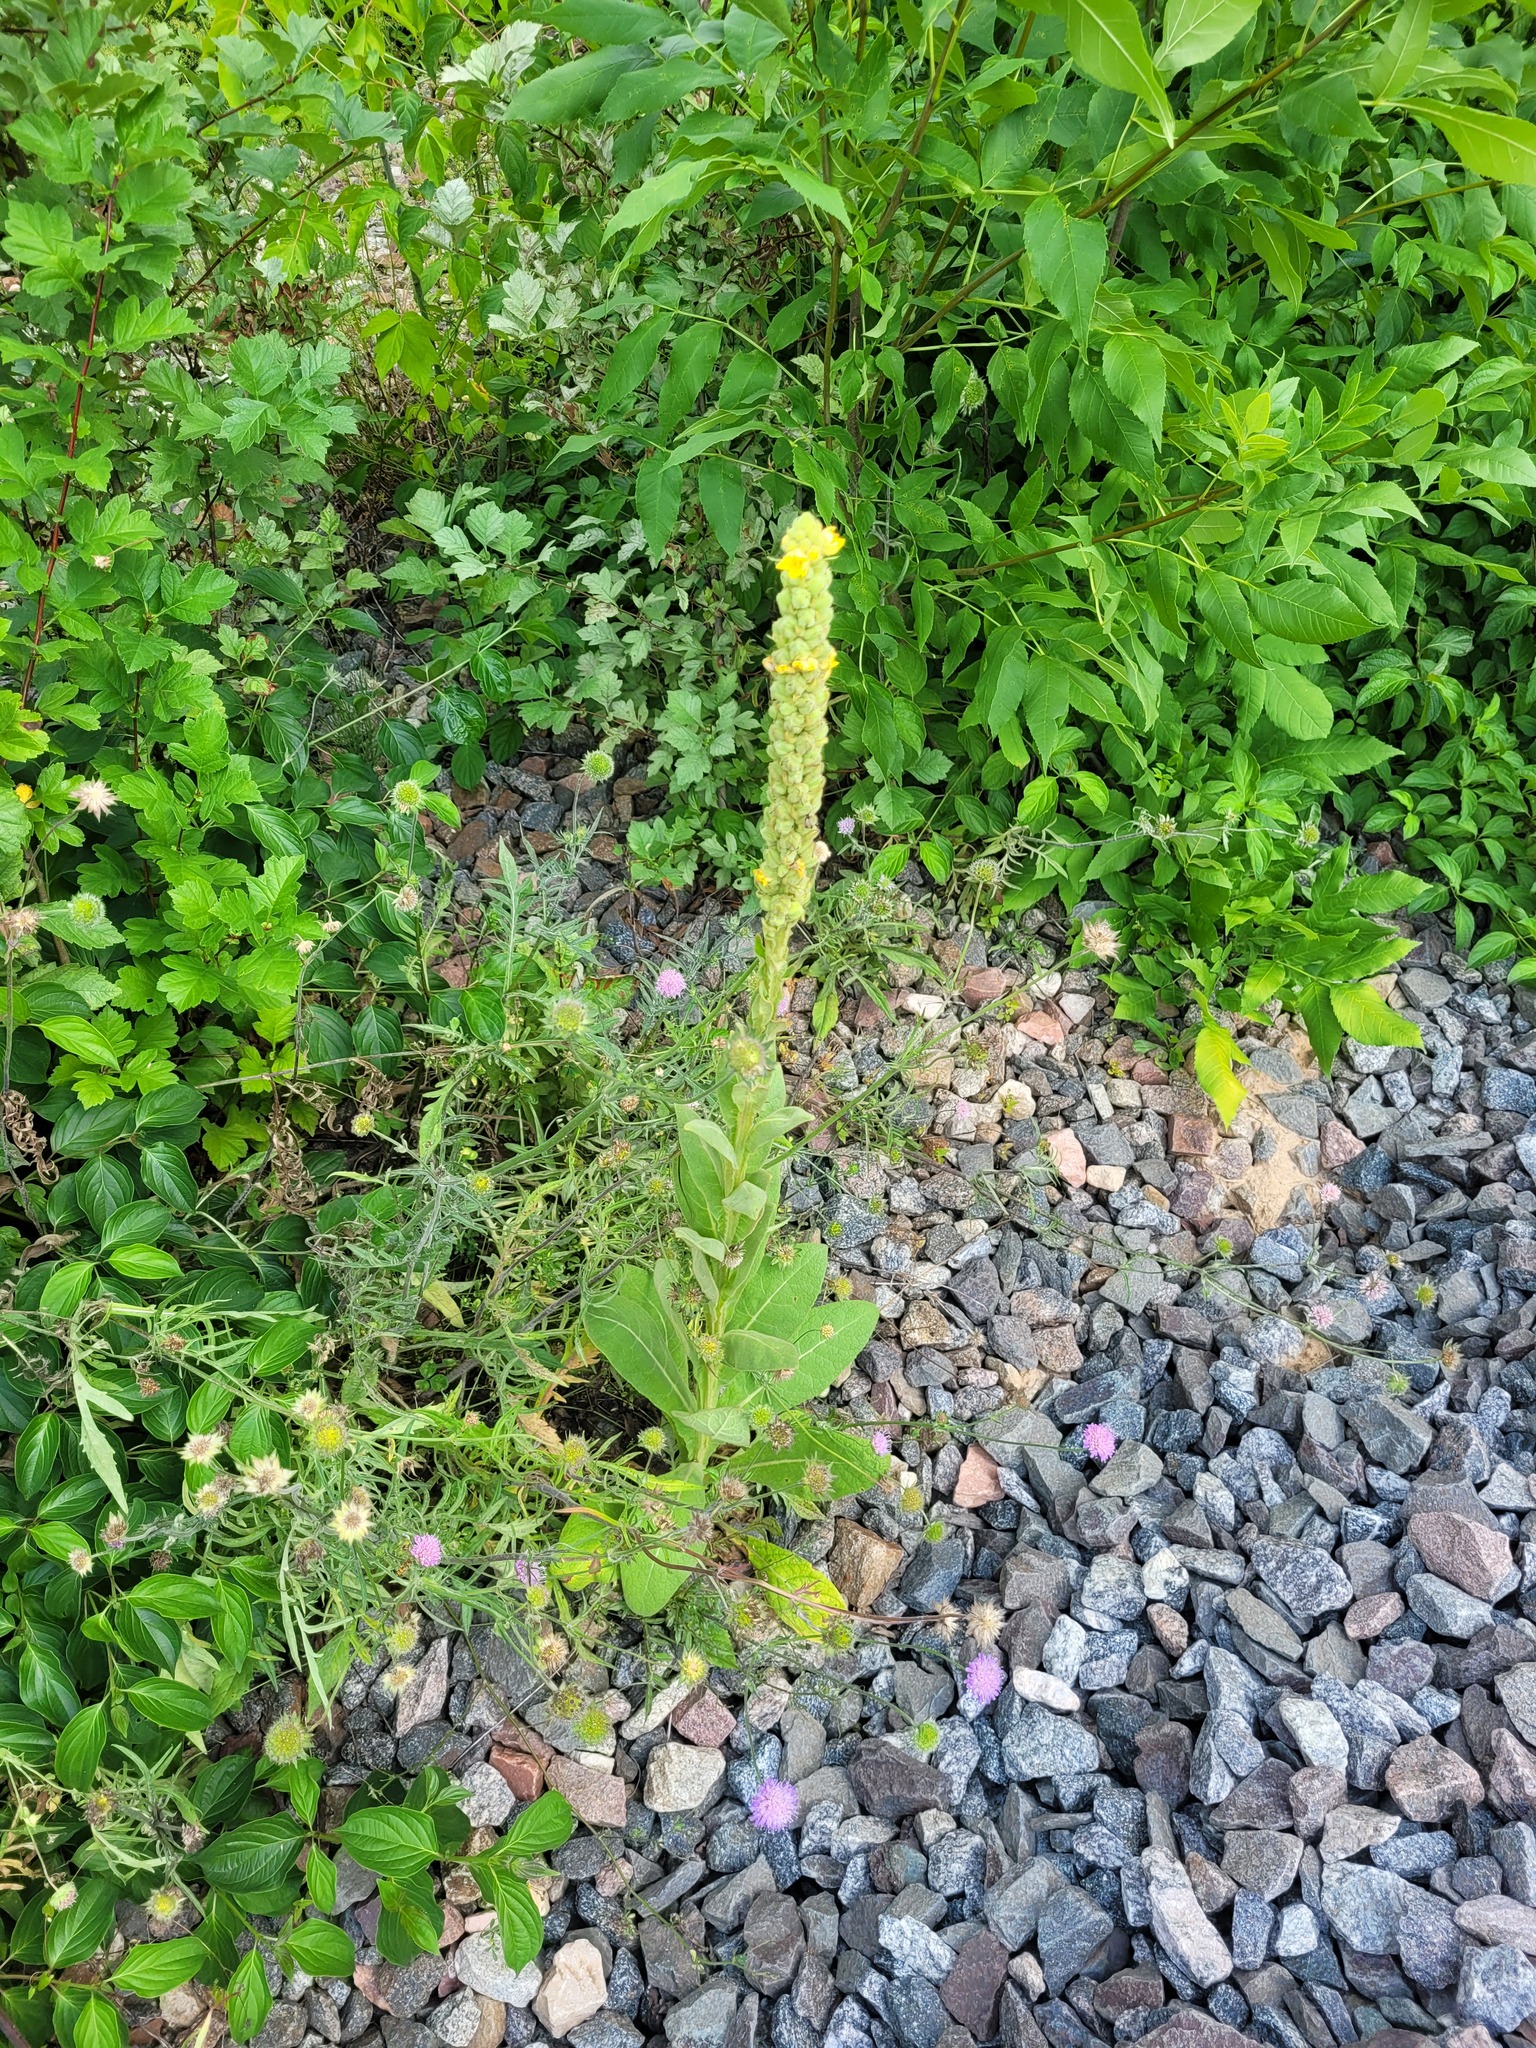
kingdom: Plantae
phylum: Tracheophyta
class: Magnoliopsida
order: Lamiales
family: Scrophulariaceae
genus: Verbascum
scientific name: Verbascum thapsus
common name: Common mullein
